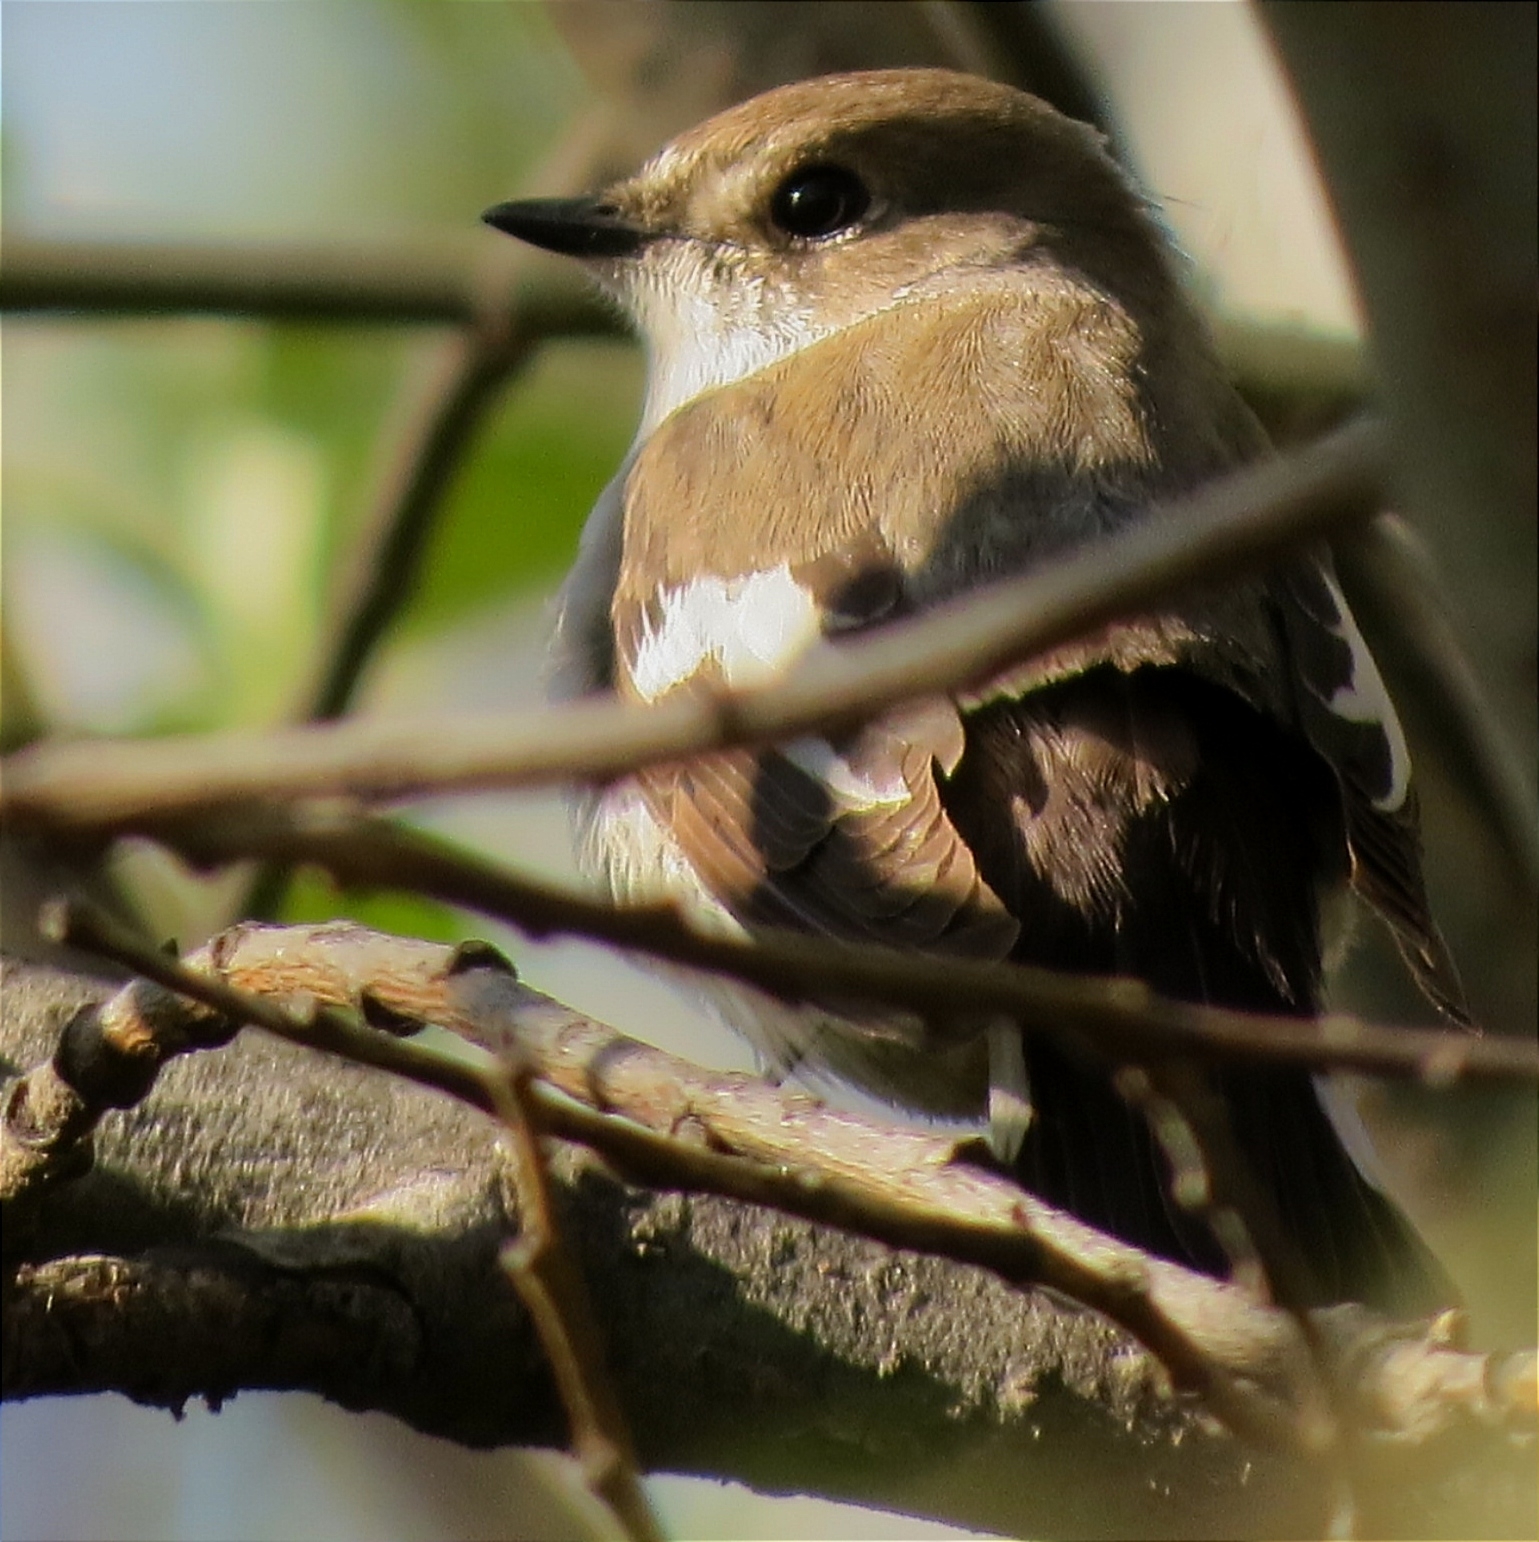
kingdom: Animalia
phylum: Chordata
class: Aves
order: Passeriformes
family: Muscicapidae
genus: Ficedula
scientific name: Ficedula hypoleuca
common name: European pied flycatcher
